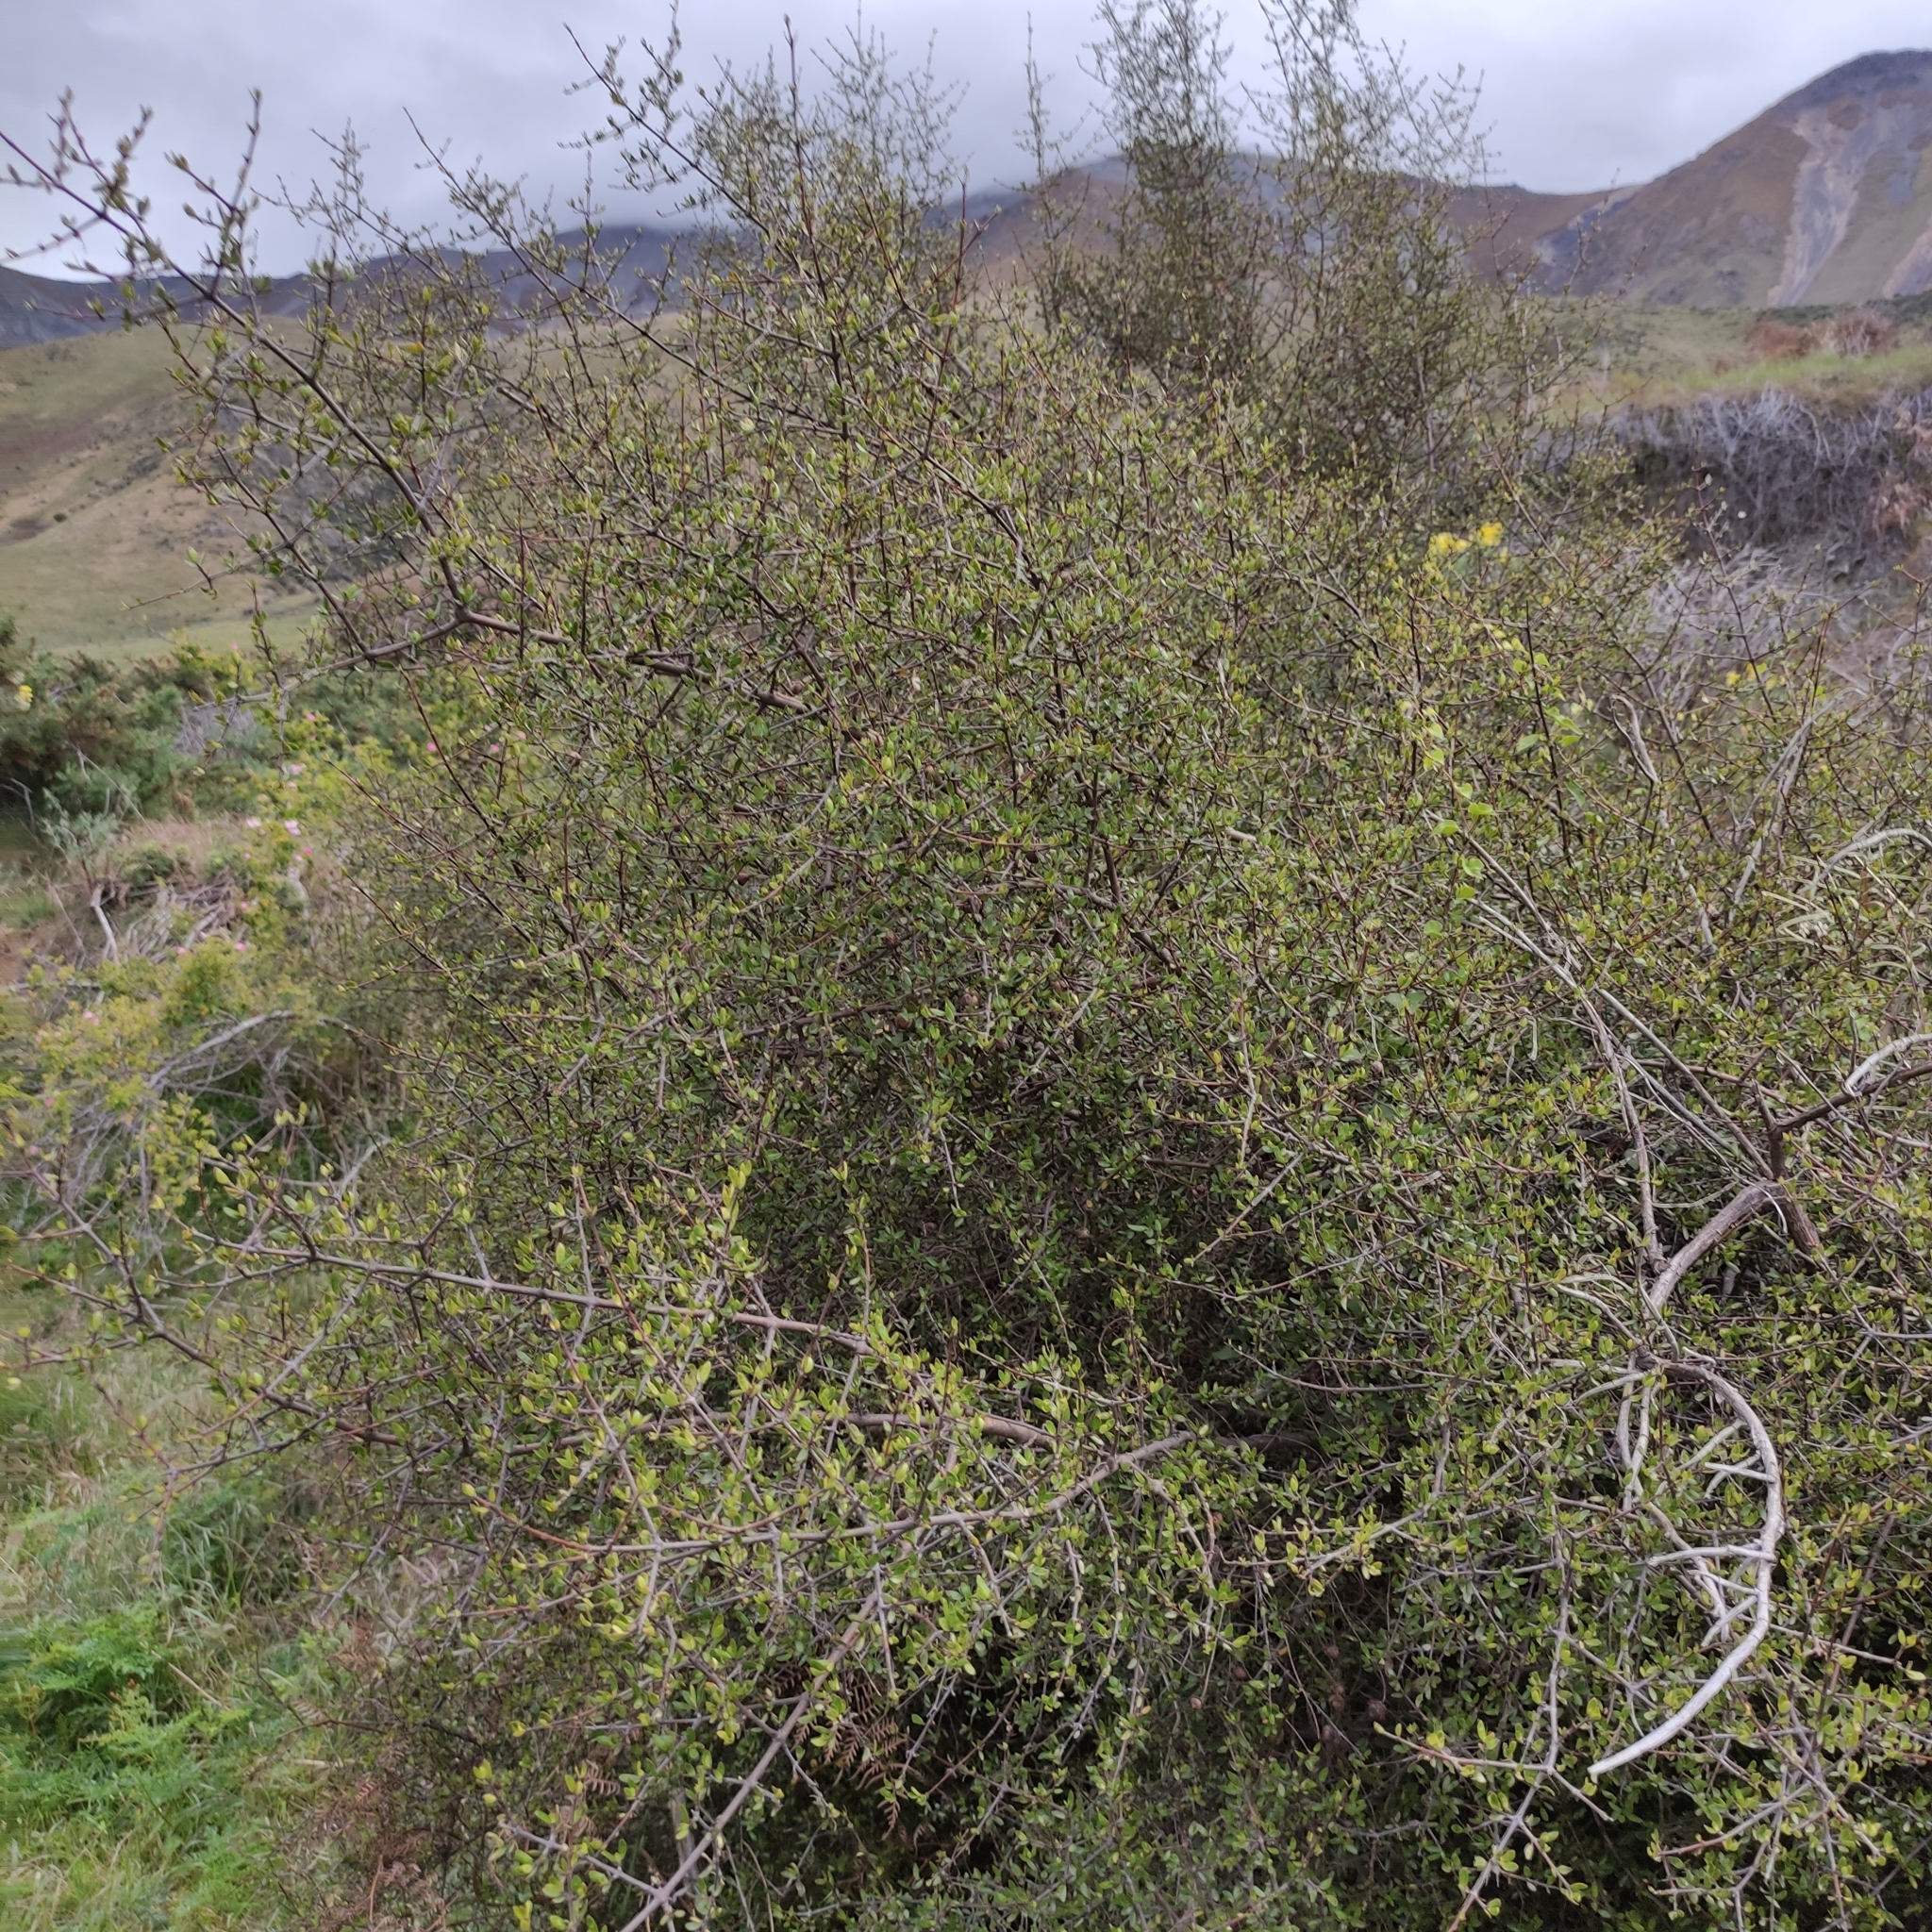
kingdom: Plantae
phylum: Tracheophyta
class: Magnoliopsida
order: Gentianales
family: Rubiaceae
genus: Coprosma
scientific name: Coprosma propinqua
